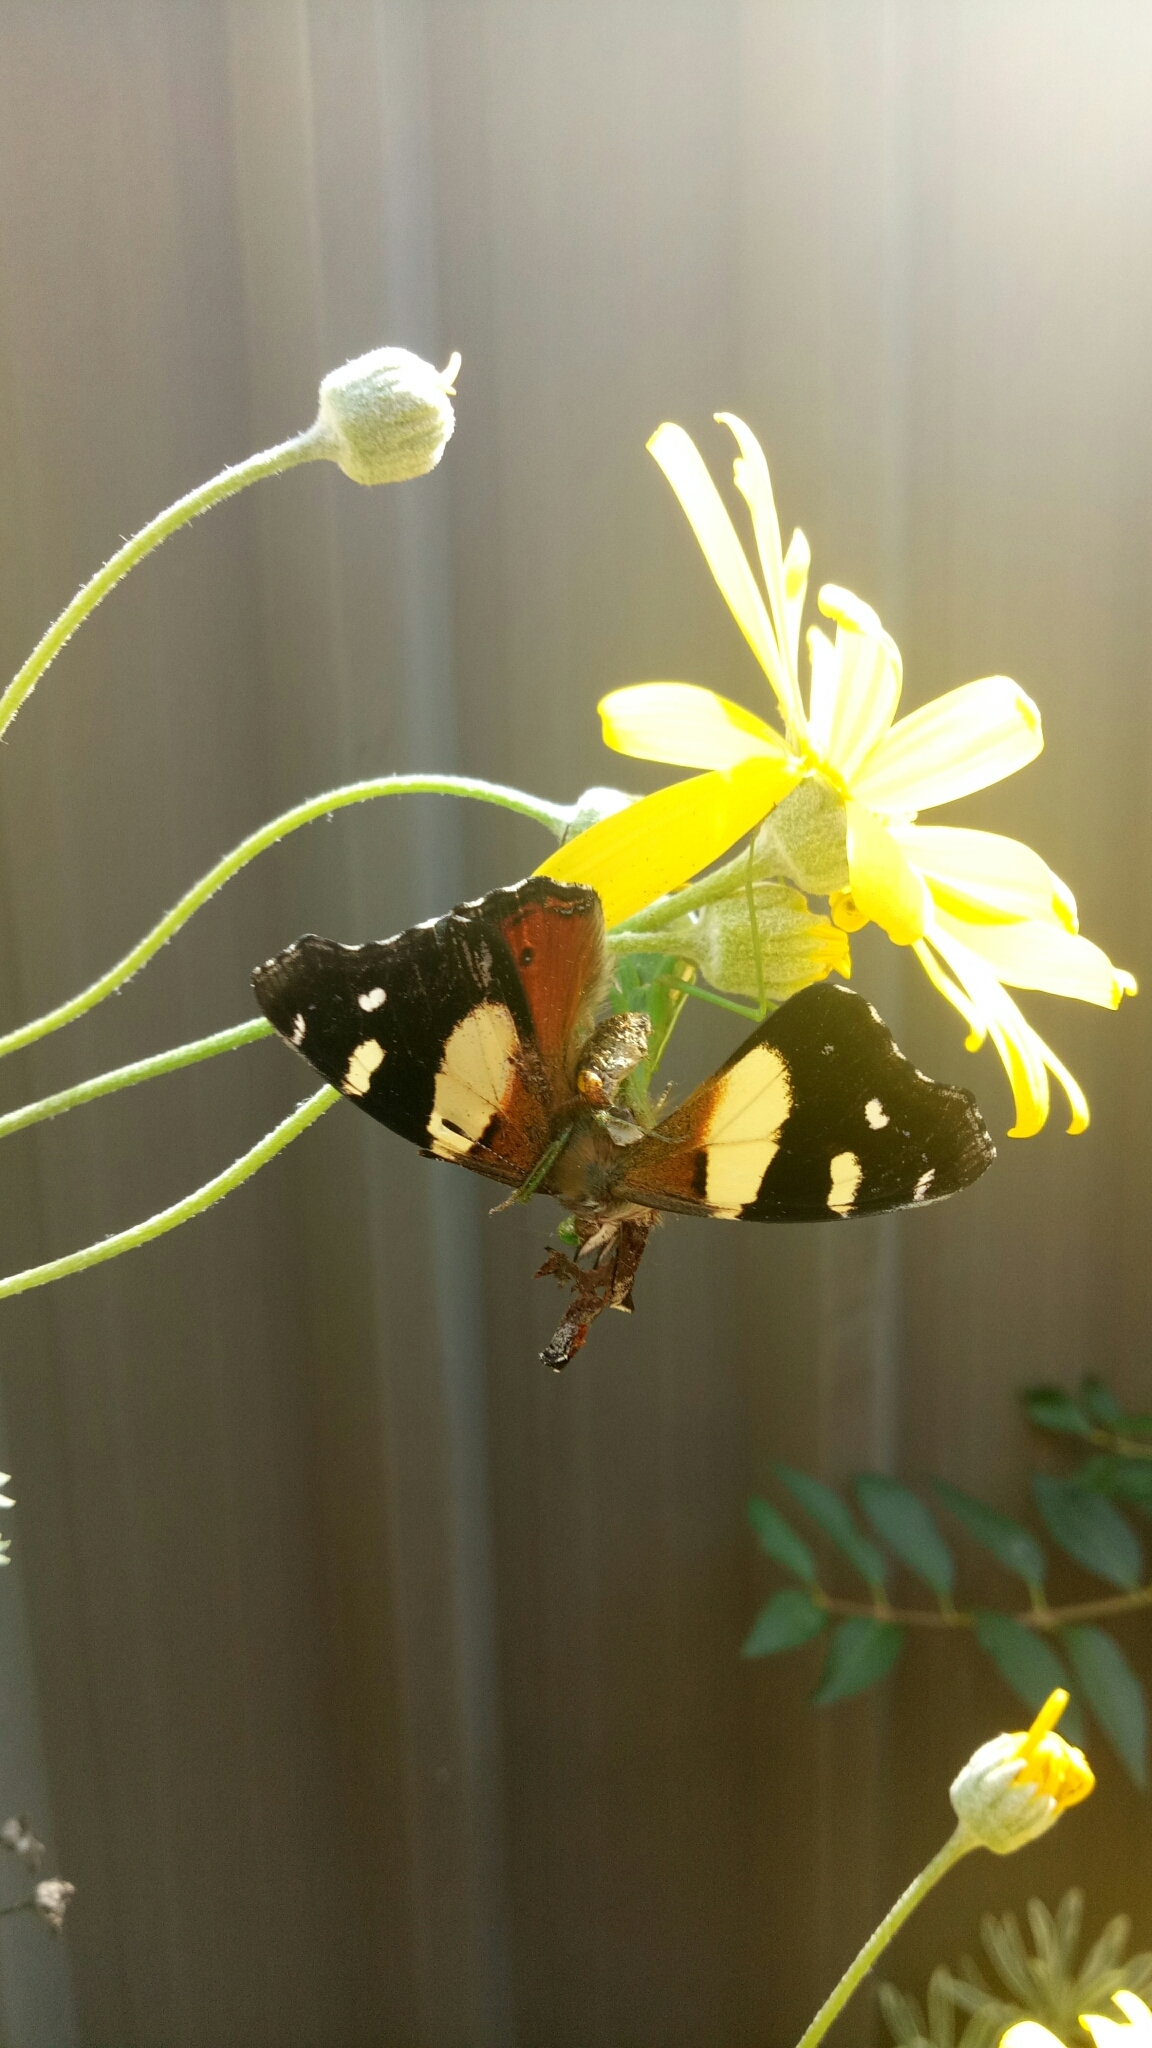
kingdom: Animalia
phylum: Arthropoda
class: Insecta
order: Lepidoptera
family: Nymphalidae
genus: Vanessa
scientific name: Vanessa itea
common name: Yellow admiral
